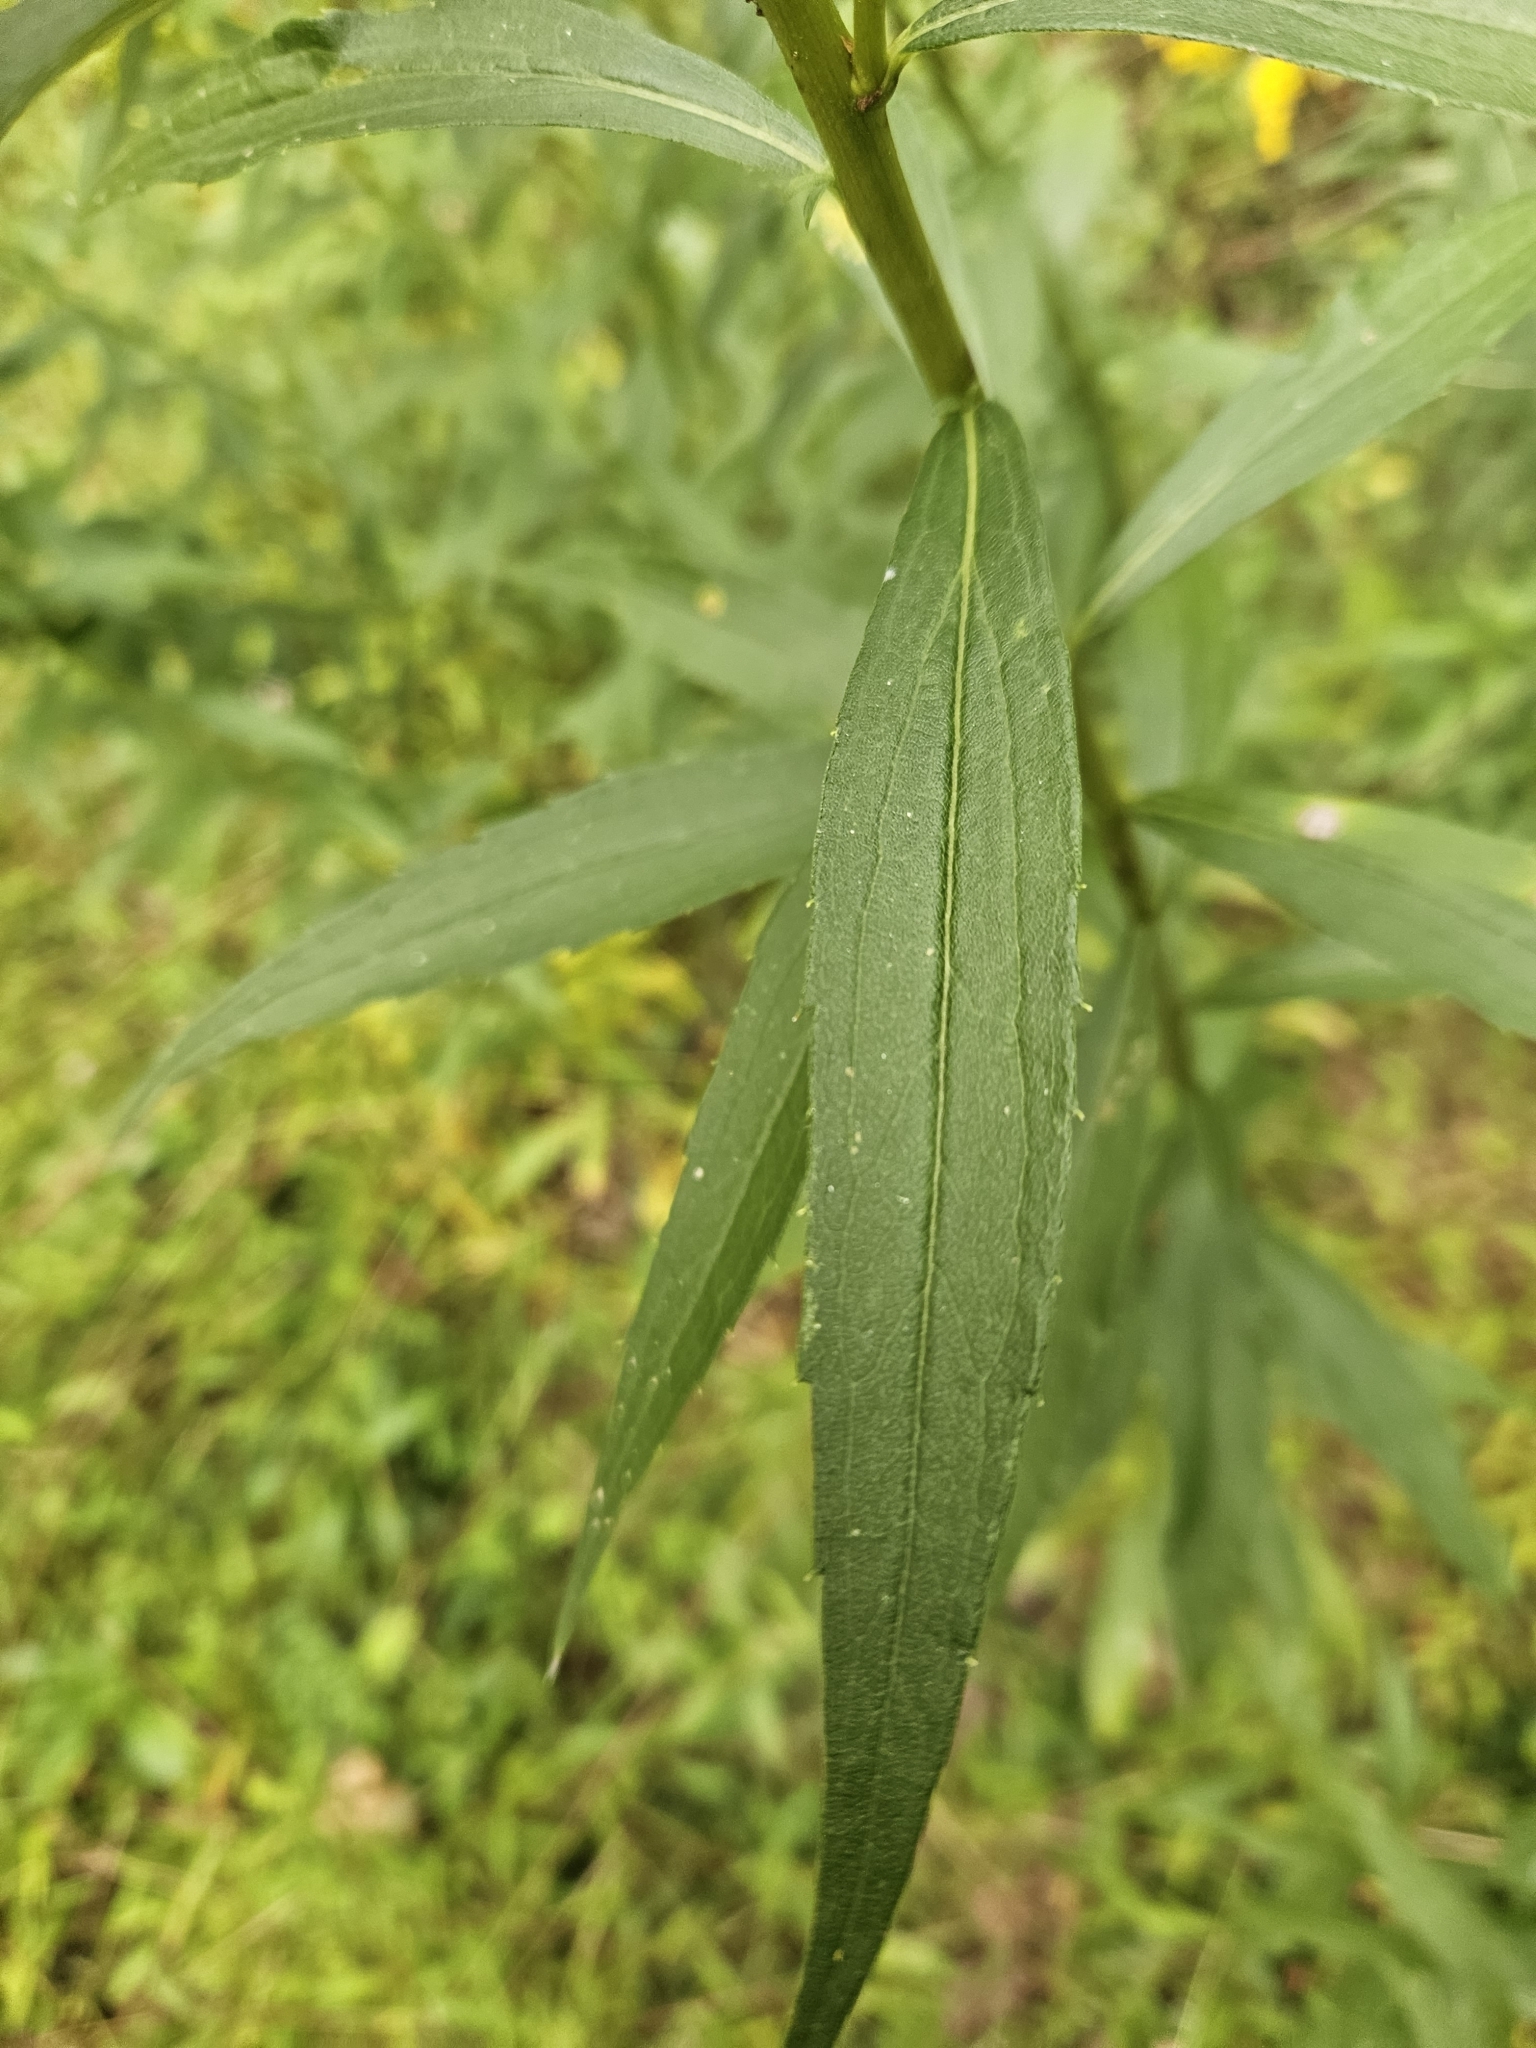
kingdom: Plantae
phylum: Tracheophyta
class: Magnoliopsida
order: Asterales
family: Asteraceae
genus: Solidago
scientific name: Solidago altissima
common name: Late goldenrod
